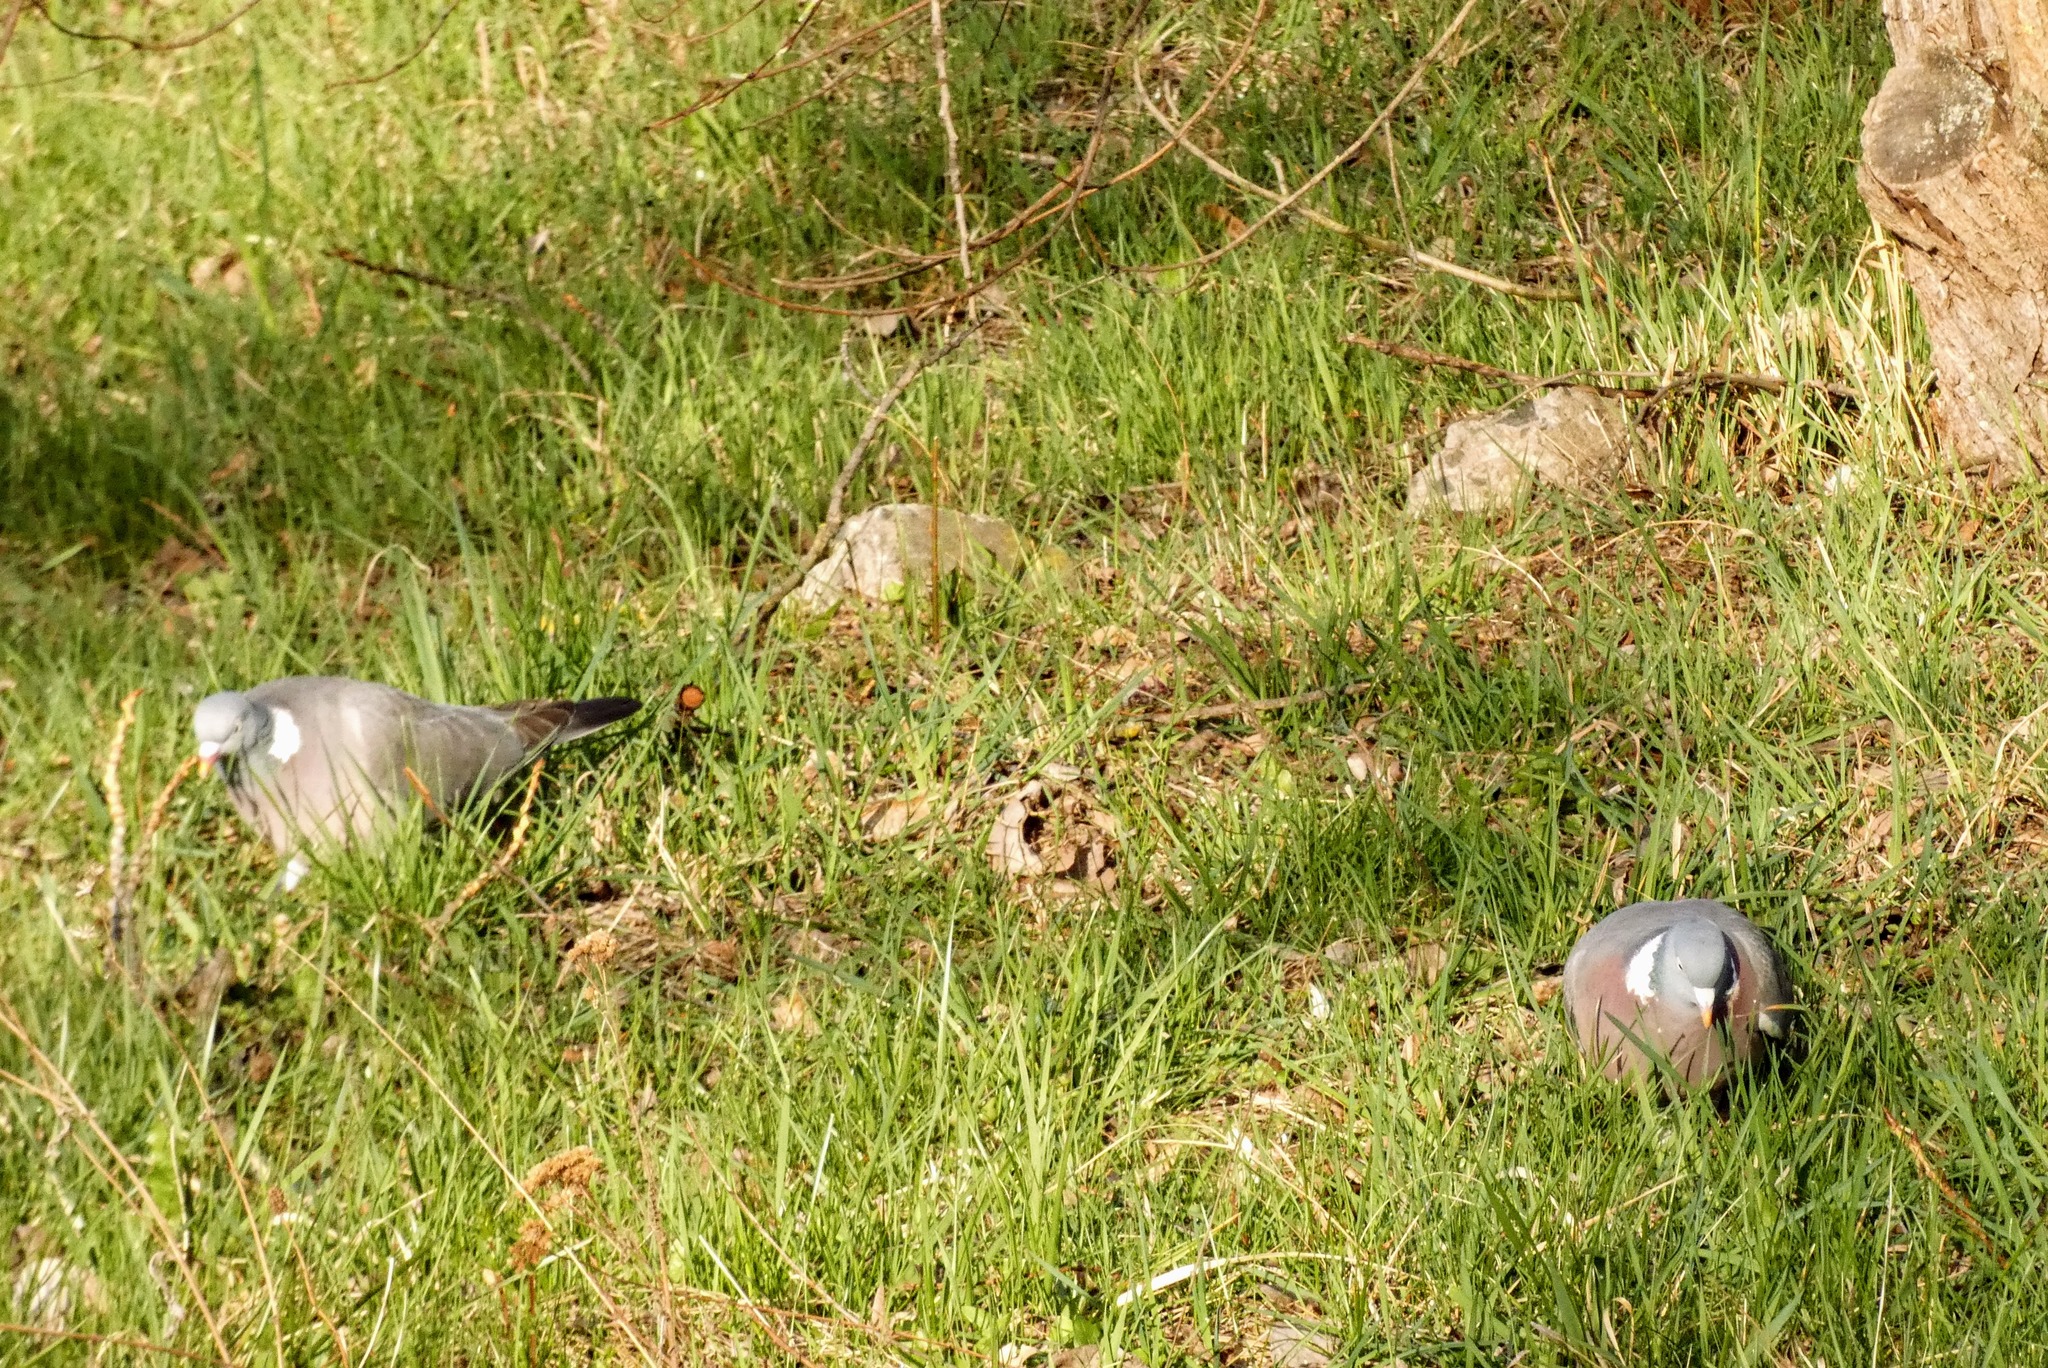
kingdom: Animalia
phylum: Chordata
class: Aves
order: Columbiformes
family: Columbidae
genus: Columba
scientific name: Columba palumbus
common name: Common wood pigeon
